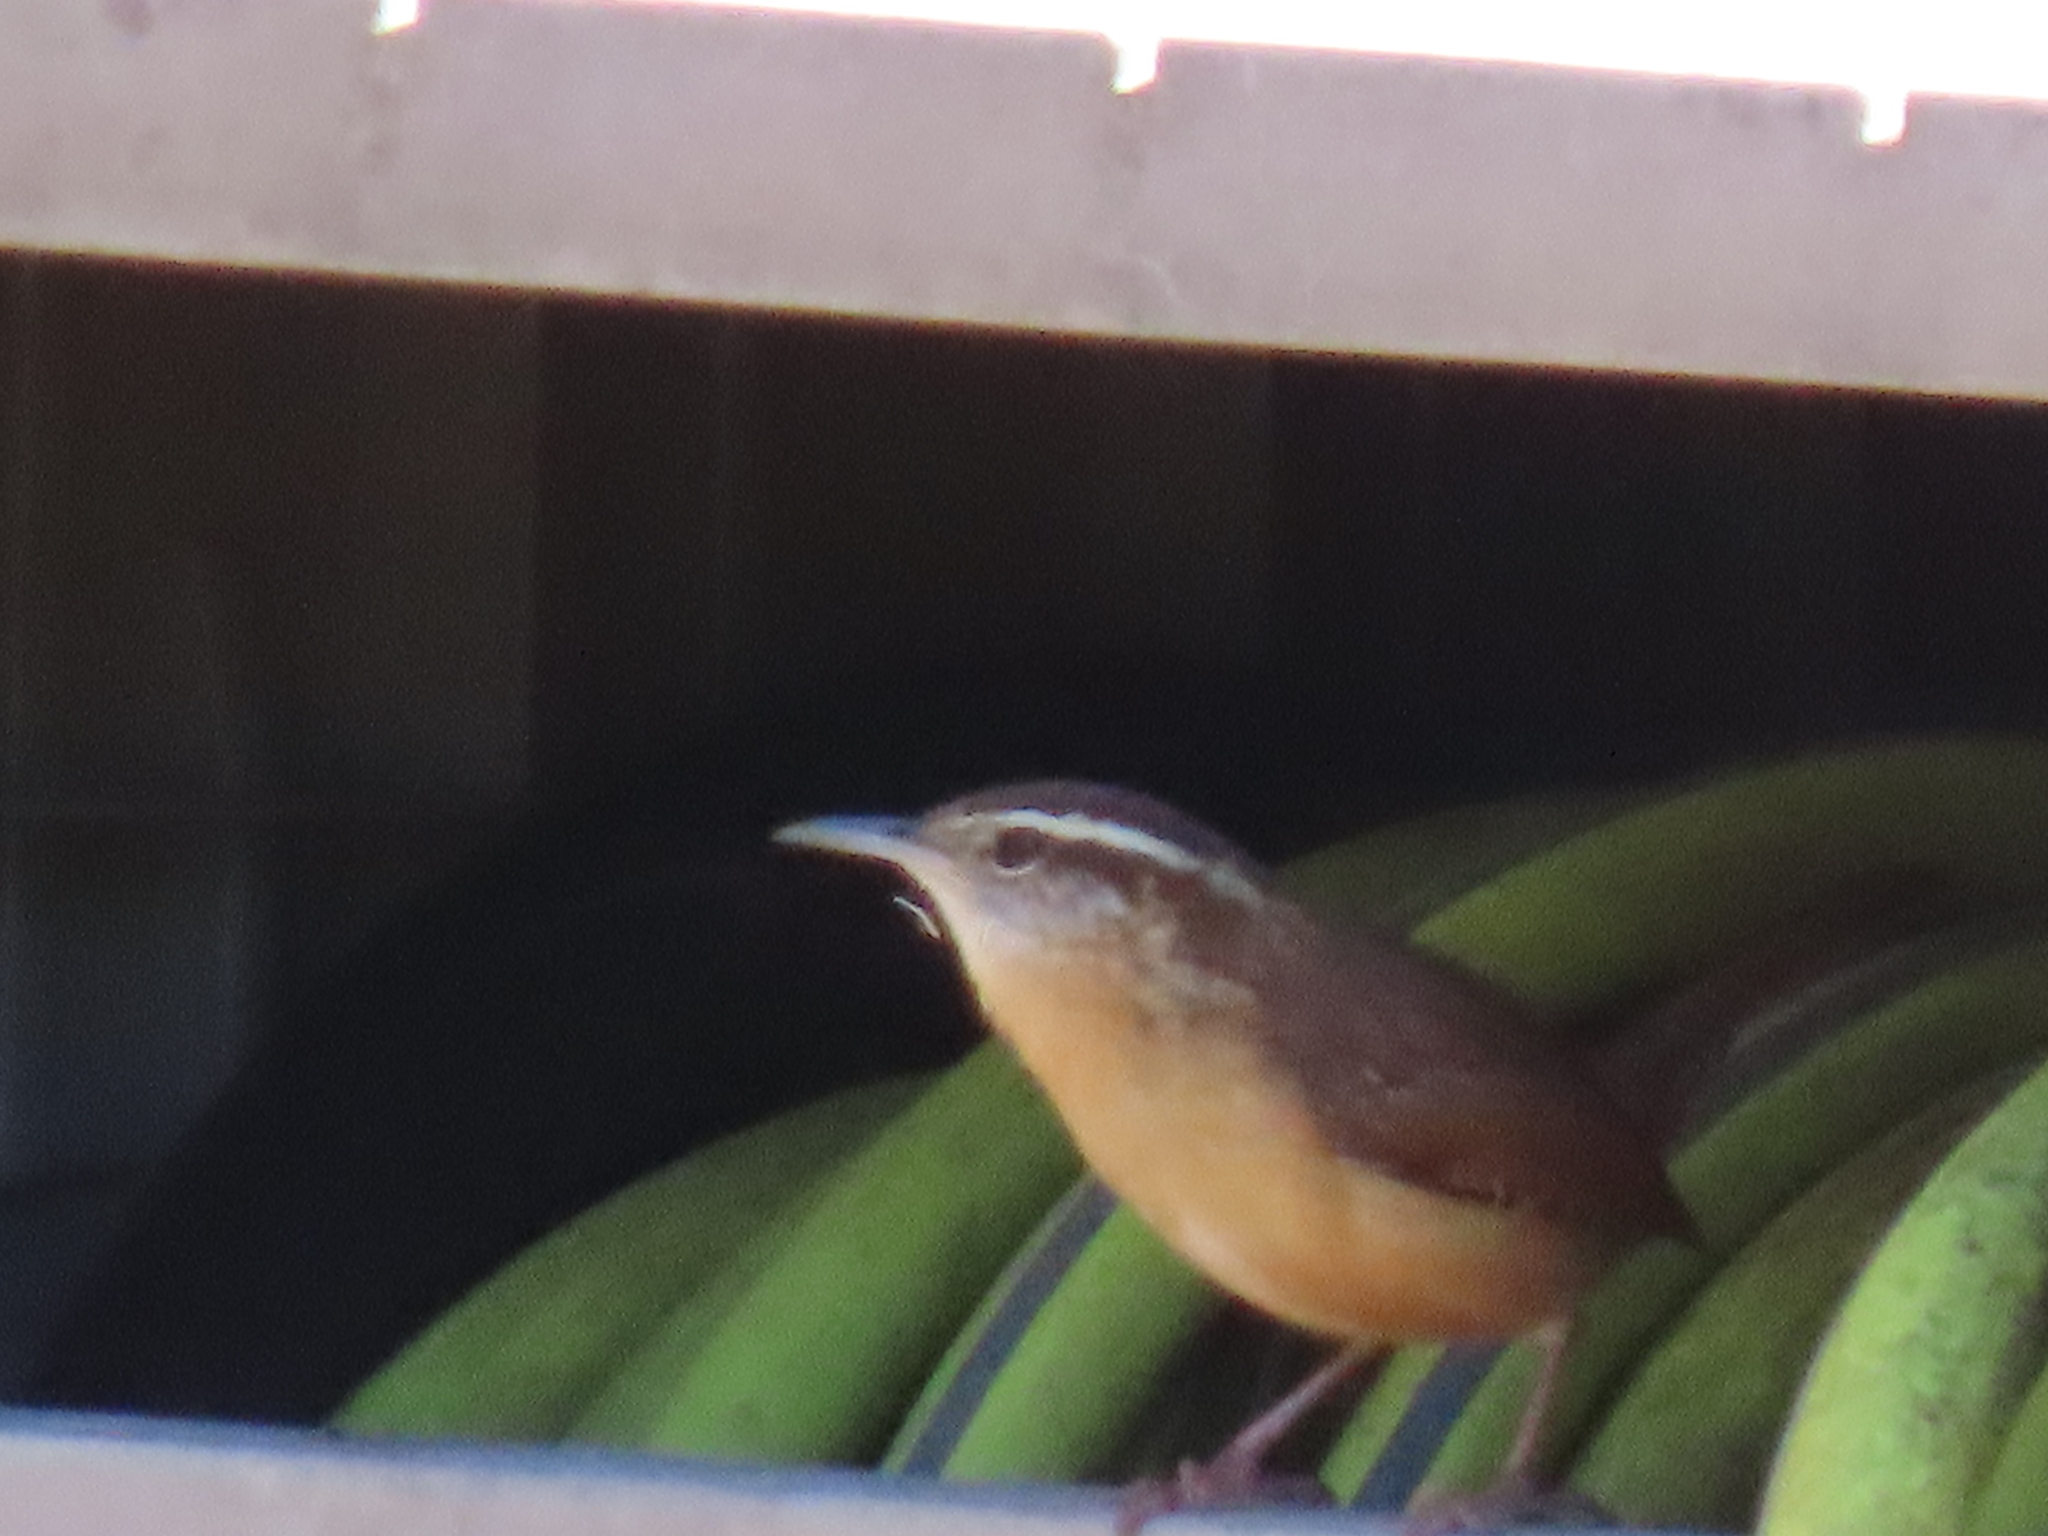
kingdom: Animalia
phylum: Chordata
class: Aves
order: Passeriformes
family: Troglodytidae
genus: Thryothorus
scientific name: Thryothorus ludovicianus
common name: Carolina wren
